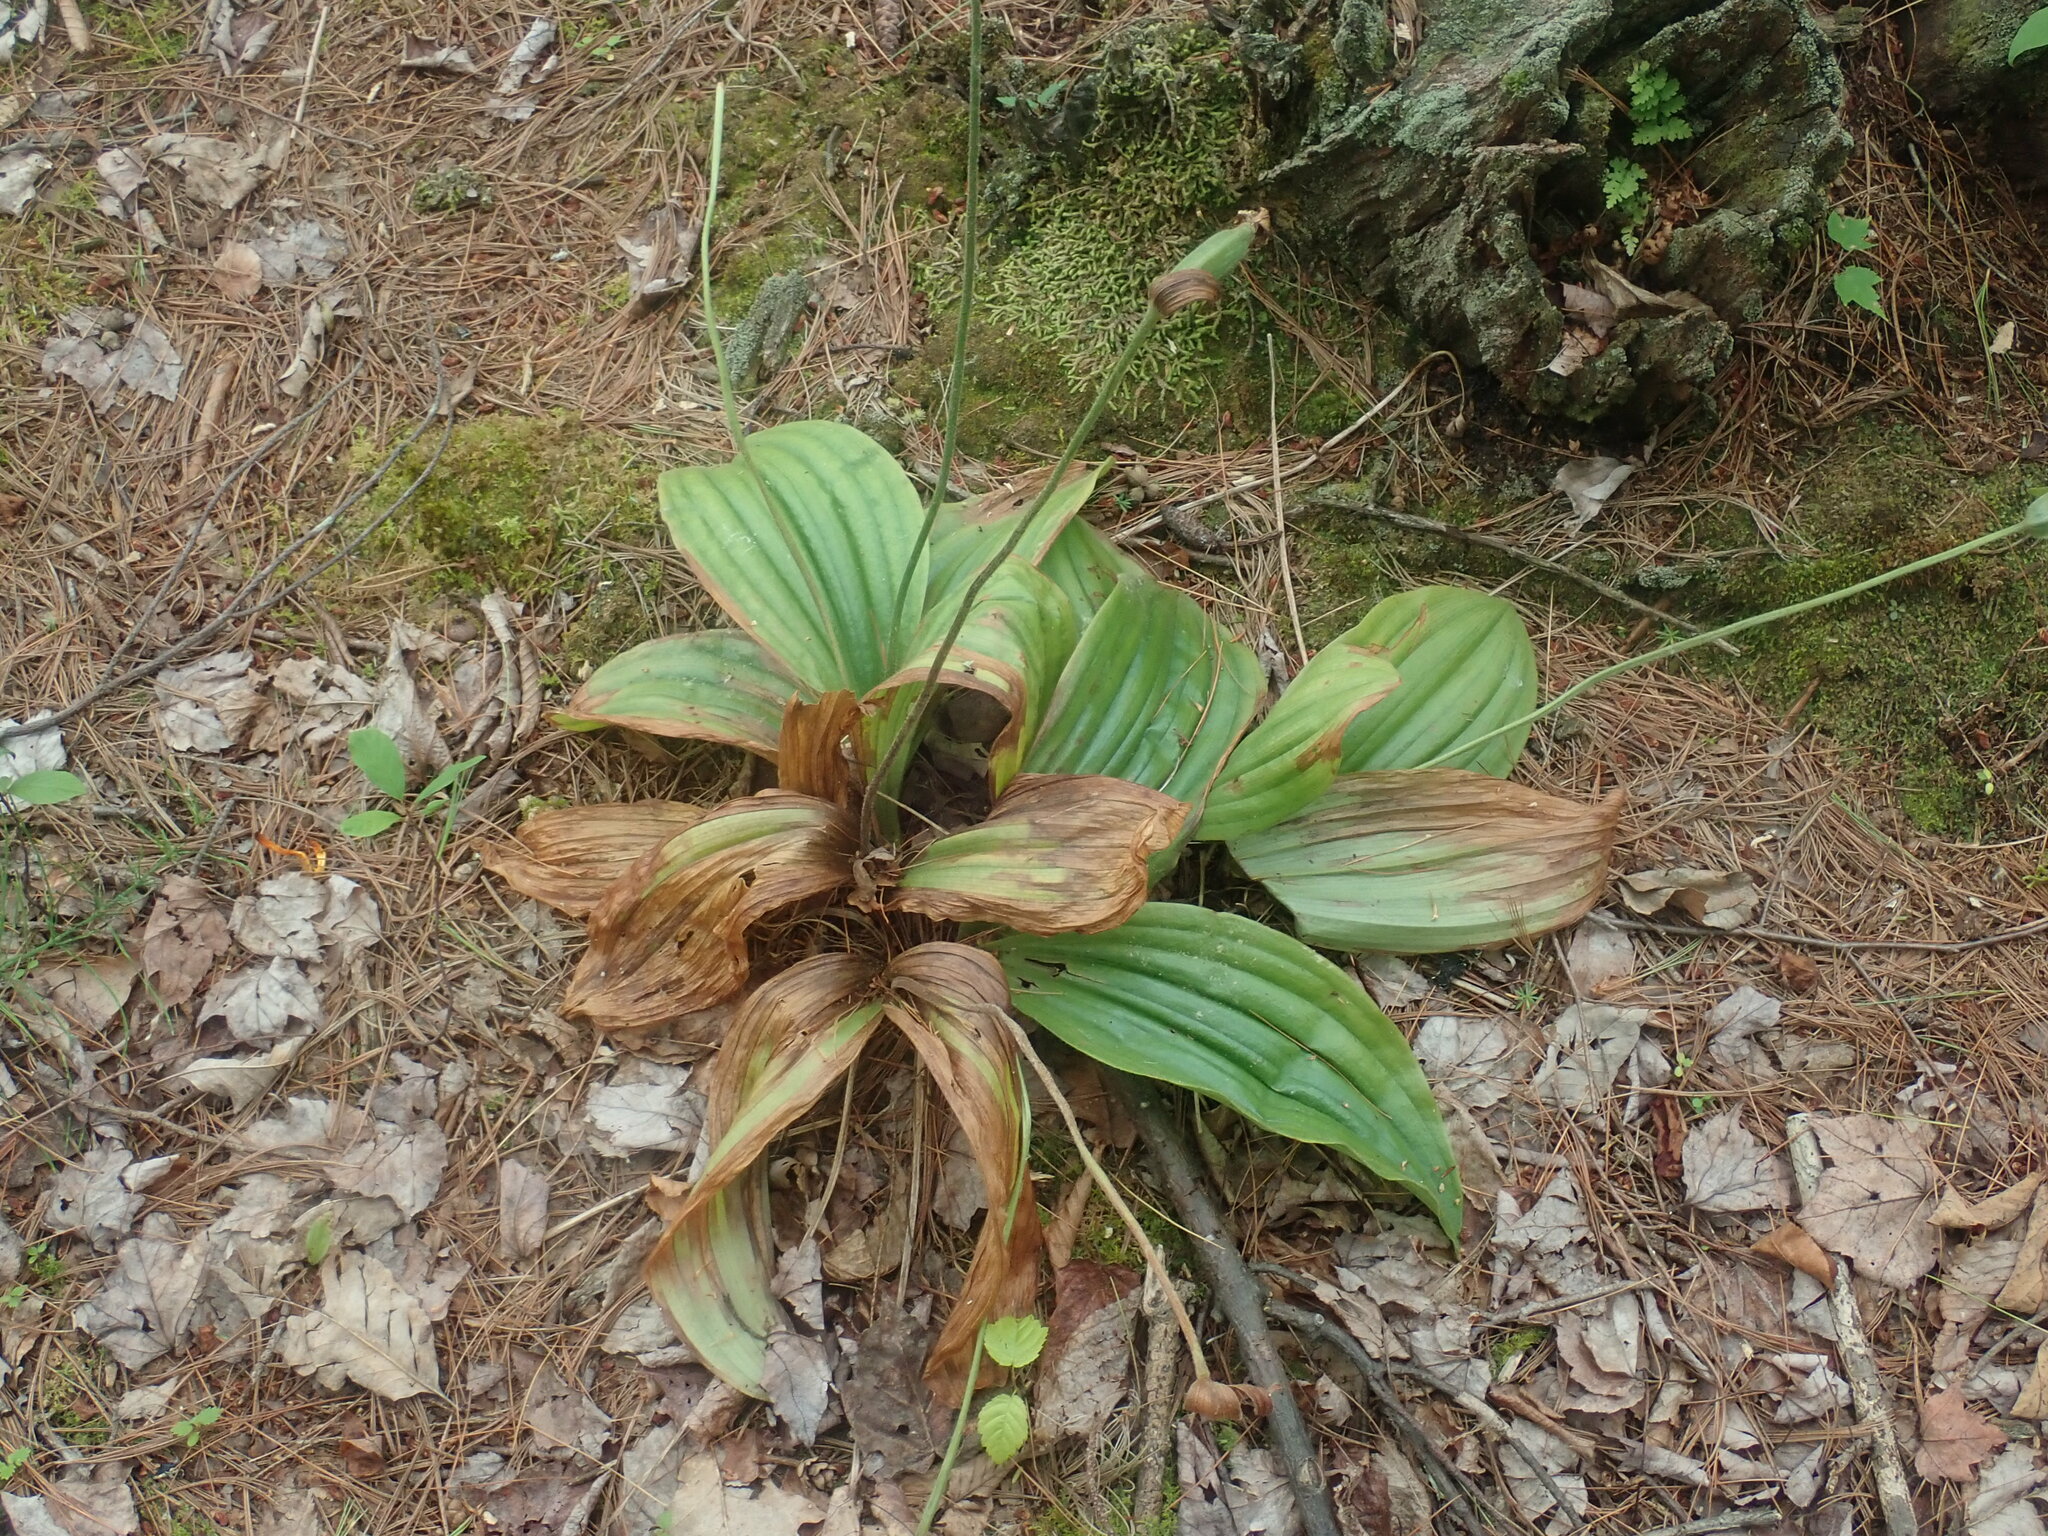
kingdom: Plantae
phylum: Tracheophyta
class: Liliopsida
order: Asparagales
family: Orchidaceae
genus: Cypripedium
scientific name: Cypripedium acaule
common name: Pink lady's-slipper
